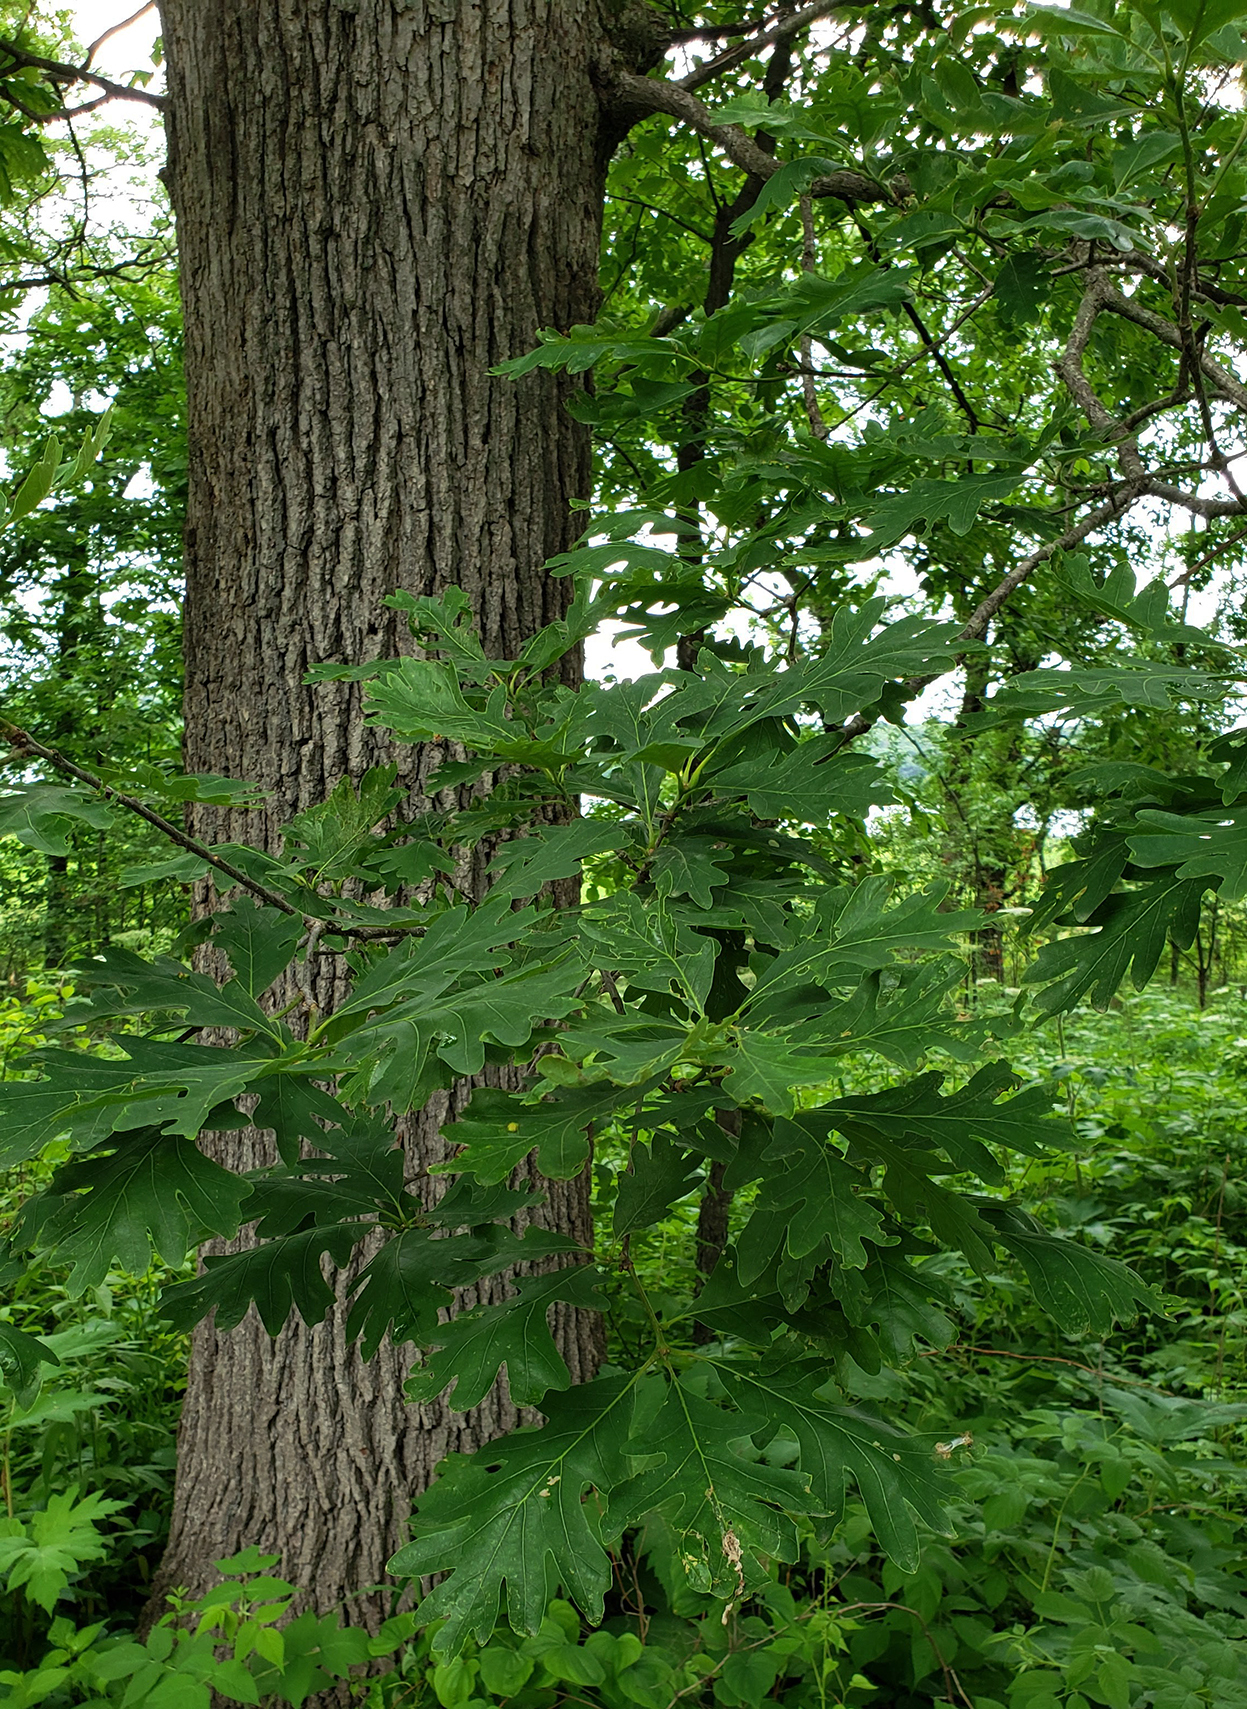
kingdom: Plantae
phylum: Tracheophyta
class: Magnoliopsida
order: Fagales
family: Fagaceae
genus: Quercus
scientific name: Quercus alba
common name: White oak
